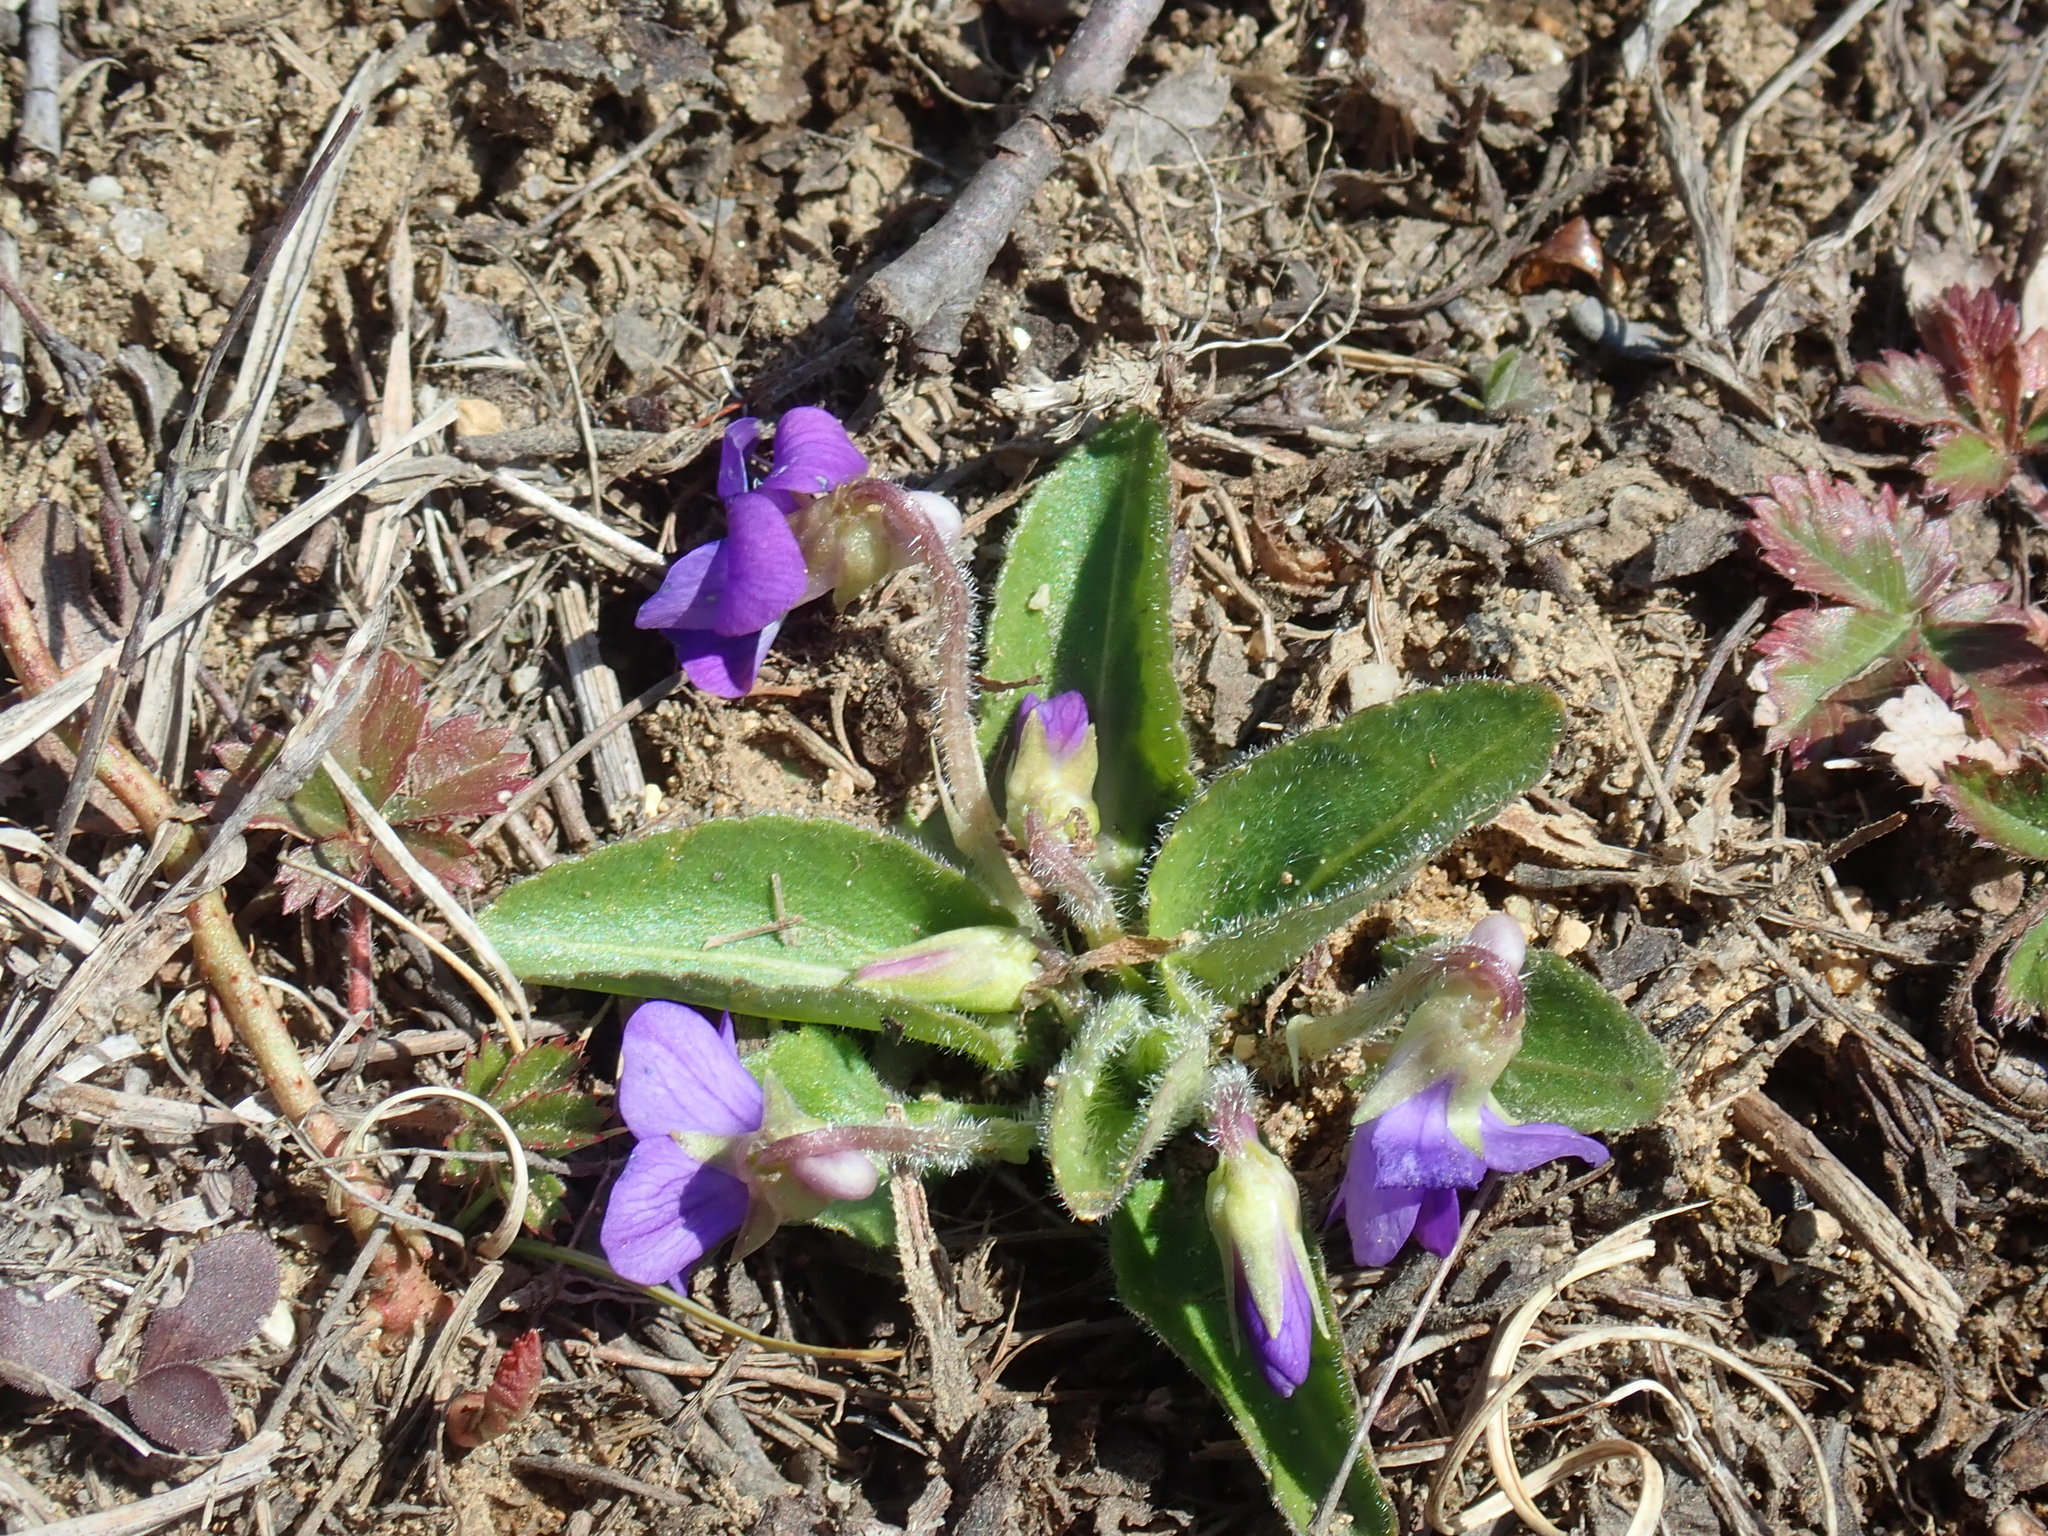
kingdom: Plantae
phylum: Tracheophyta
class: Magnoliopsida
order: Malpighiales
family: Violaceae
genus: Viola
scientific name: Viola sagittata
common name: Arrowhead violet
